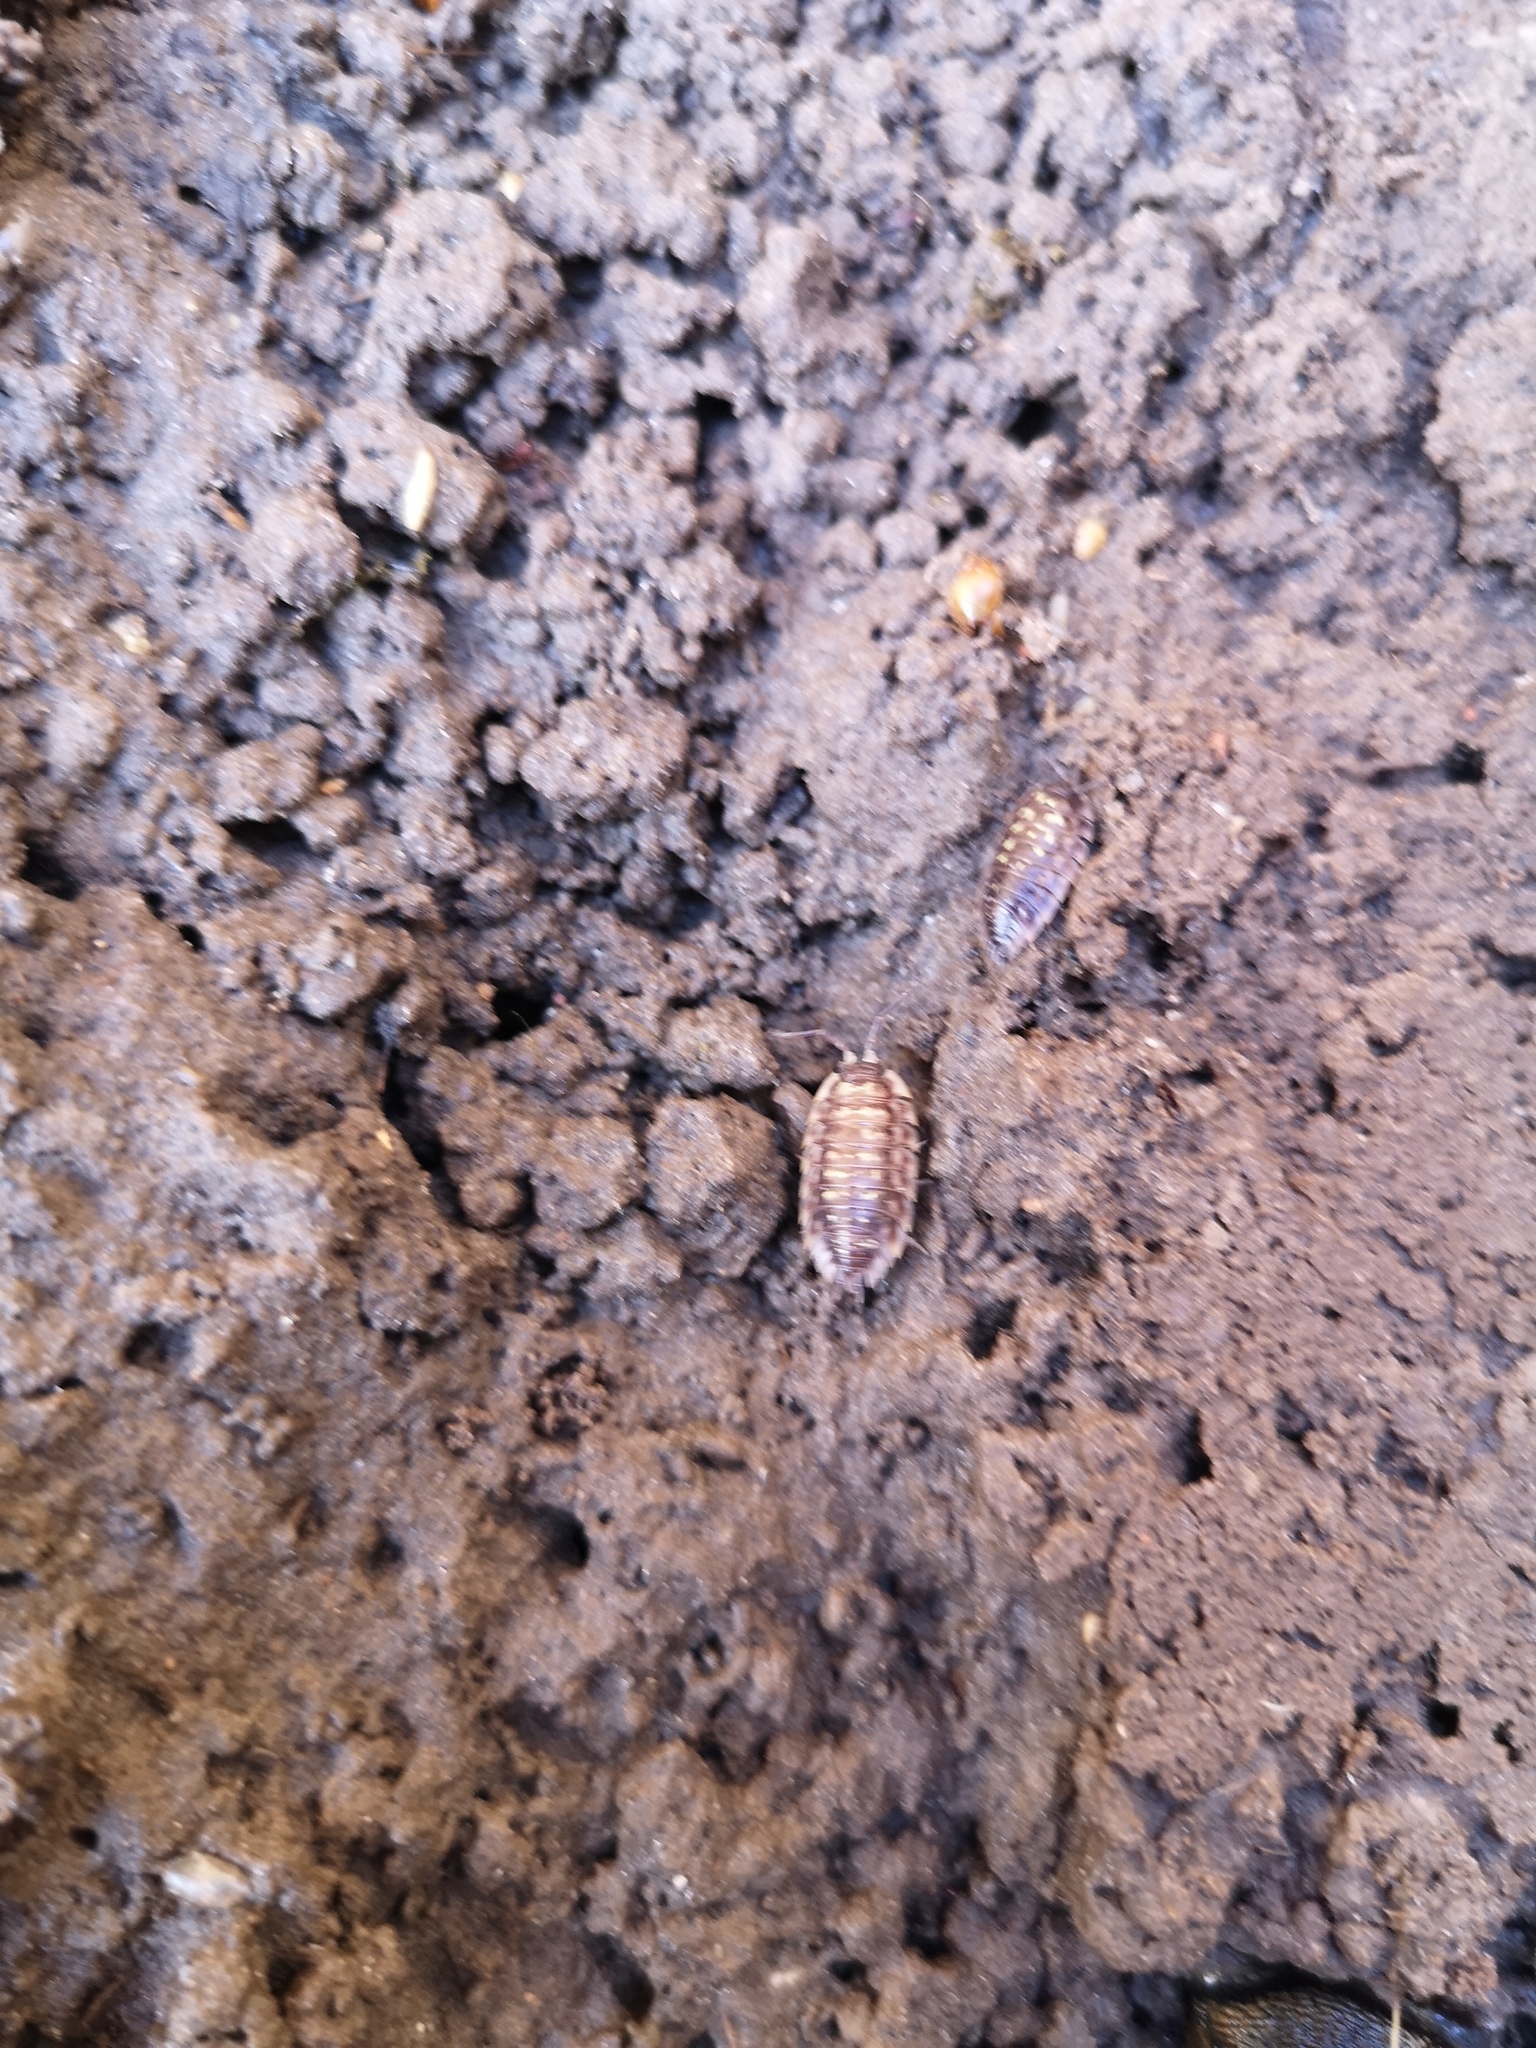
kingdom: Animalia
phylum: Arthropoda
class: Malacostraca
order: Isopoda
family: Oniscidae
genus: Oniscus
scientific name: Oniscus asellus
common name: Common shiny woodlouse
